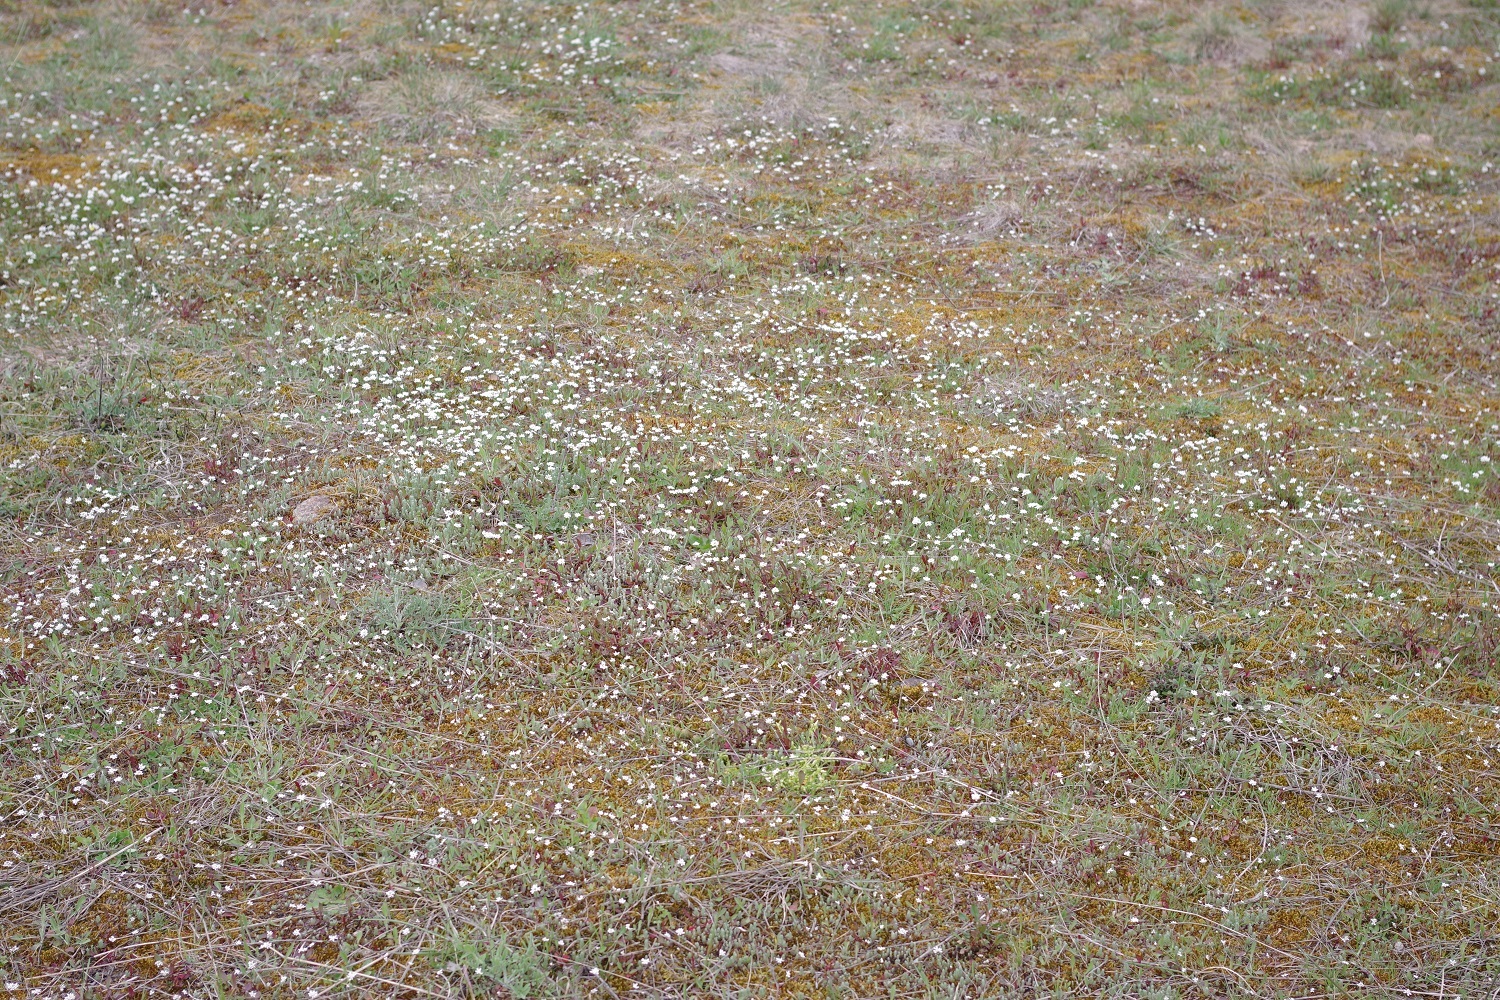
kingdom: Plantae
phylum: Tracheophyta
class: Magnoliopsida
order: Brassicales
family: Brassicaceae
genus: Teesdalia
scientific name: Teesdalia nudicaulis
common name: Shepherd's cress
